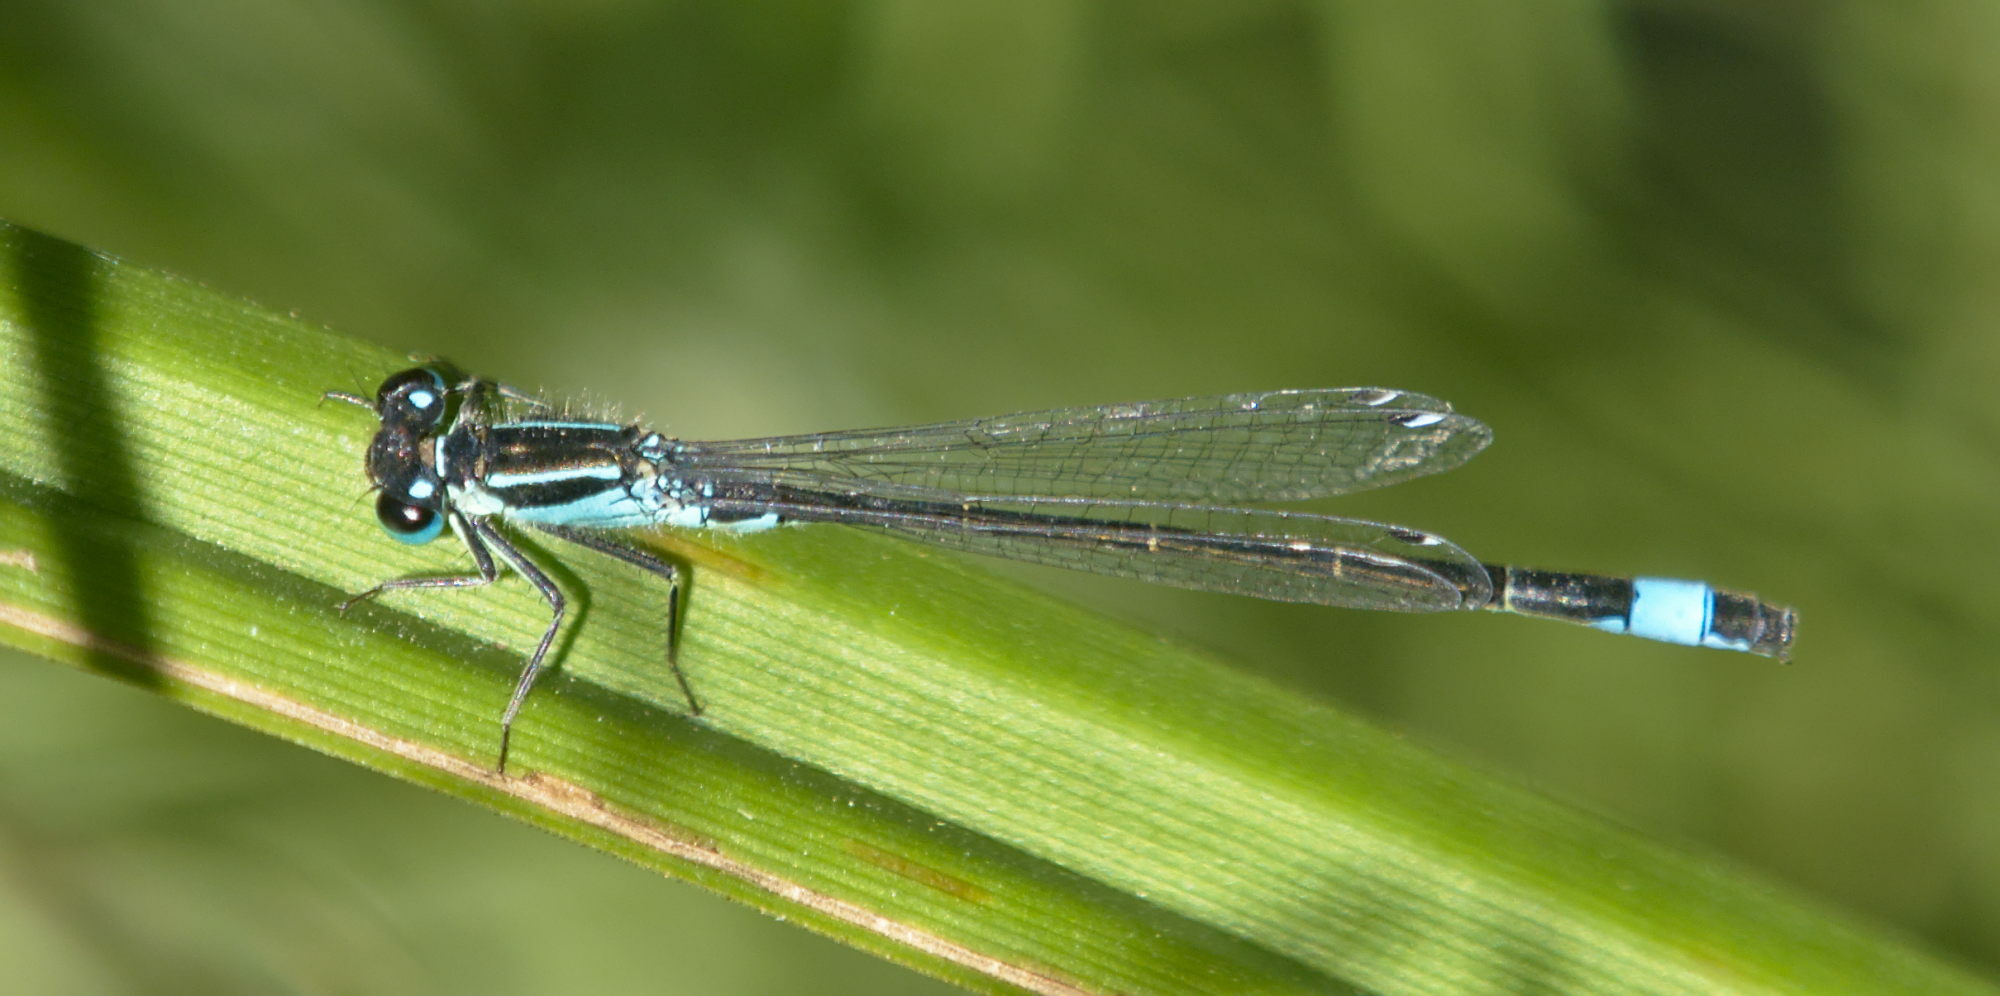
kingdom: Animalia
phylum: Arthropoda
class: Insecta
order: Odonata
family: Coenagrionidae
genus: Ischnura
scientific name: Ischnura elegans
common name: Blue-tailed damselfly
